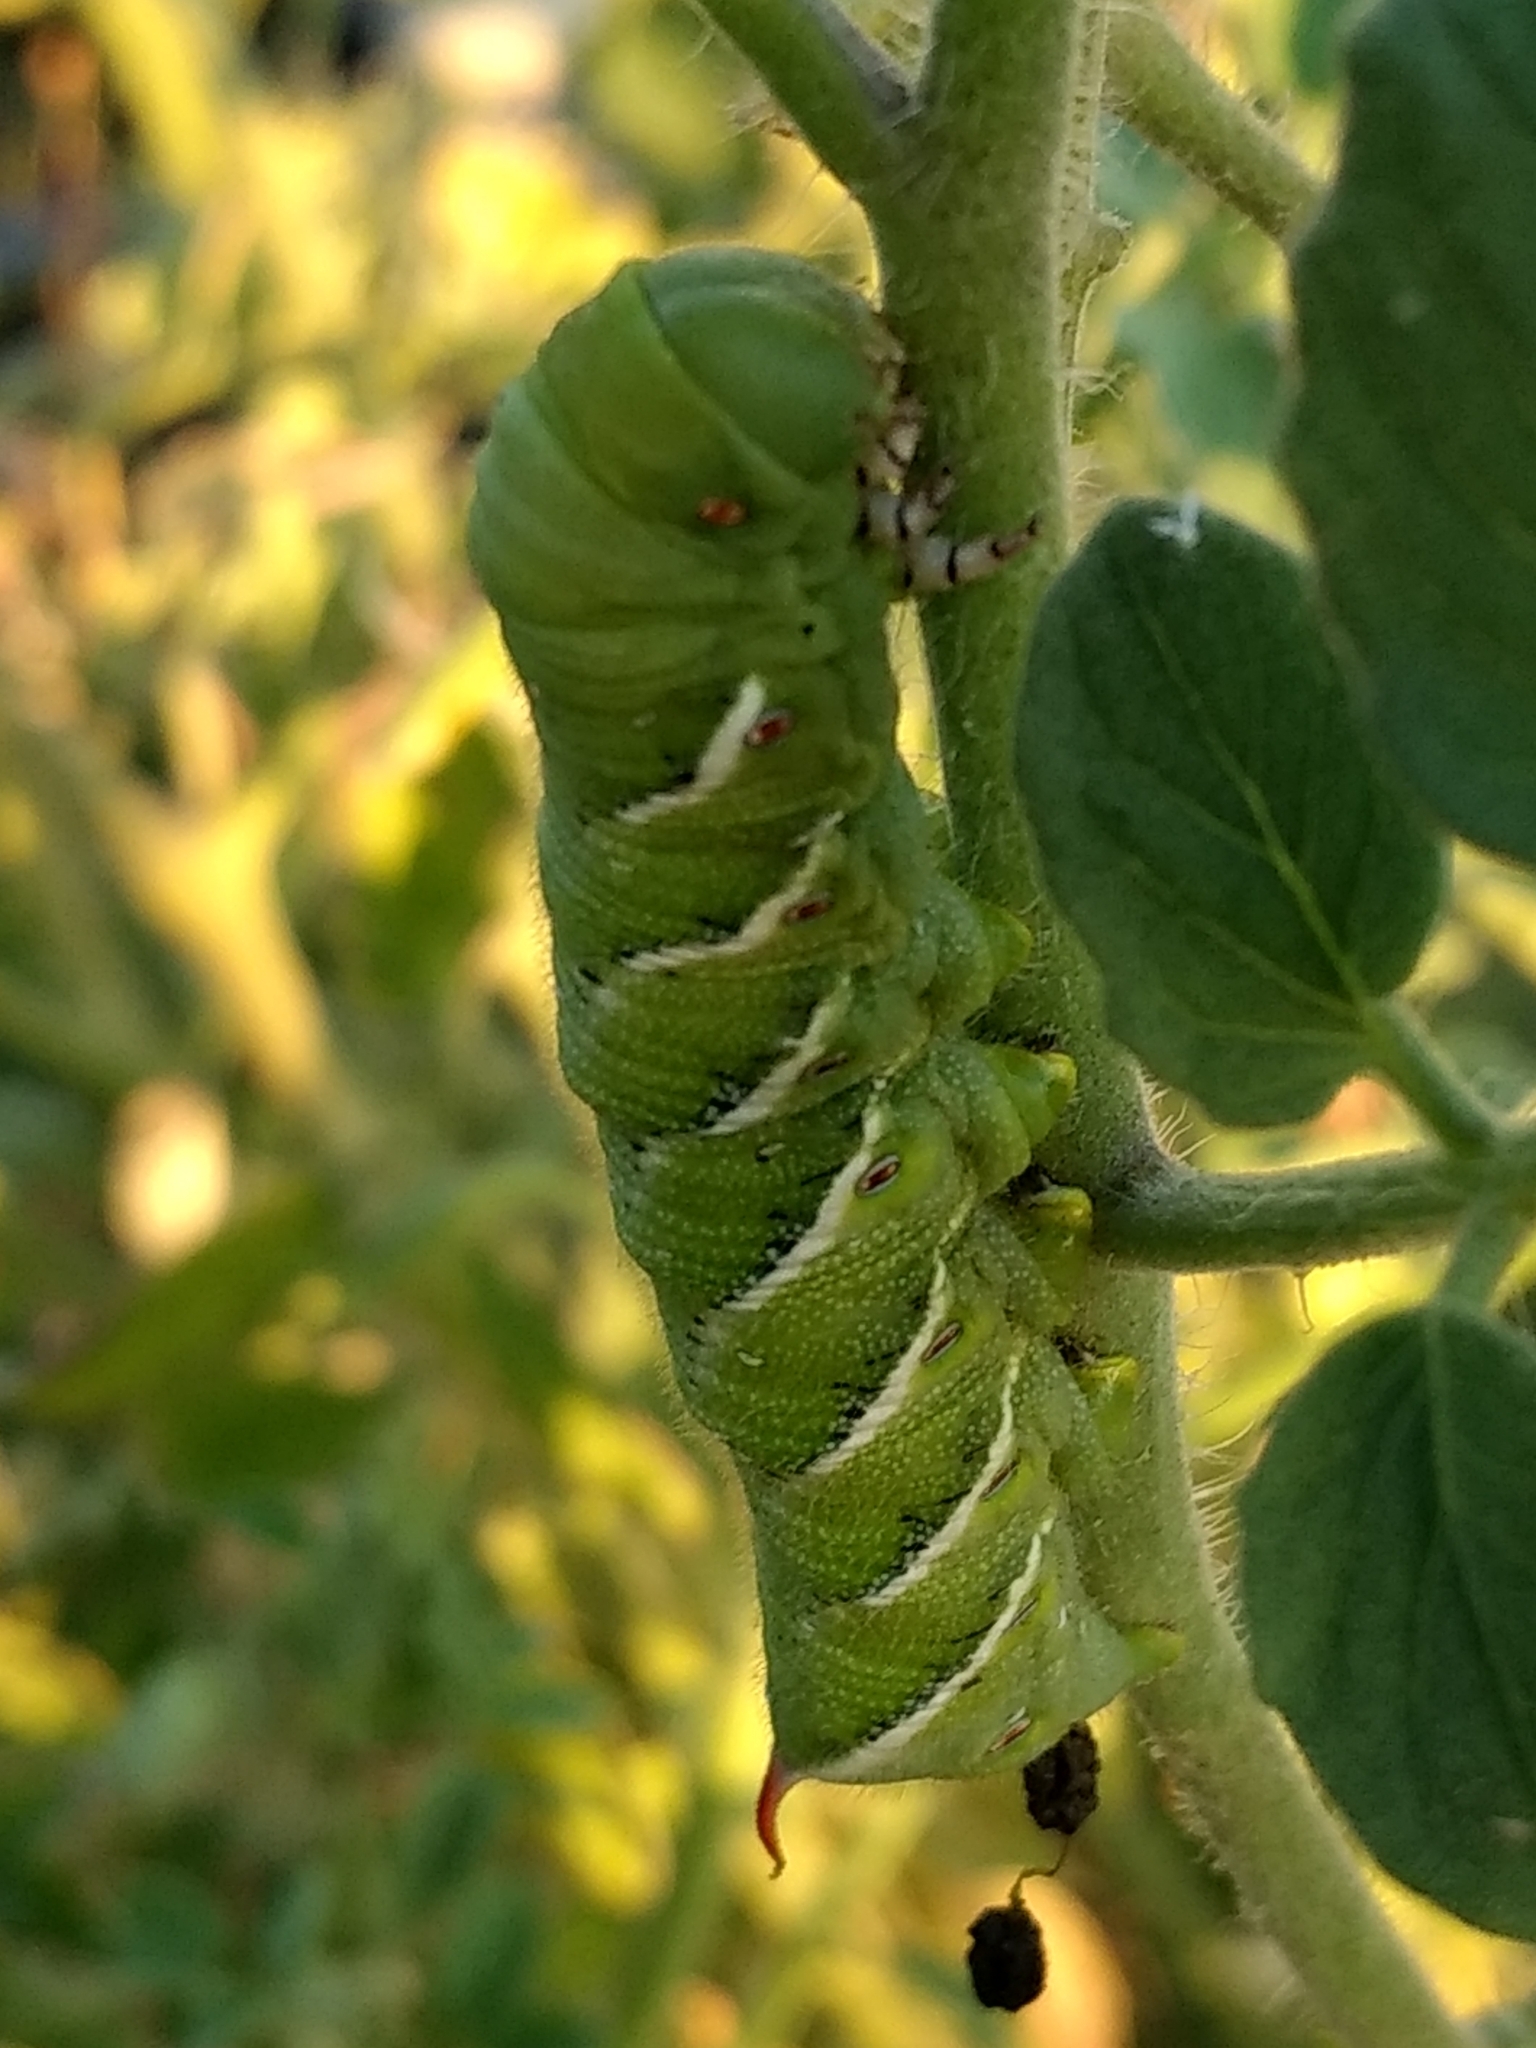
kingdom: Animalia
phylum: Arthropoda
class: Insecta
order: Lepidoptera
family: Sphingidae
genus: Manduca
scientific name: Manduca sexta
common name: Carolina sphinx
